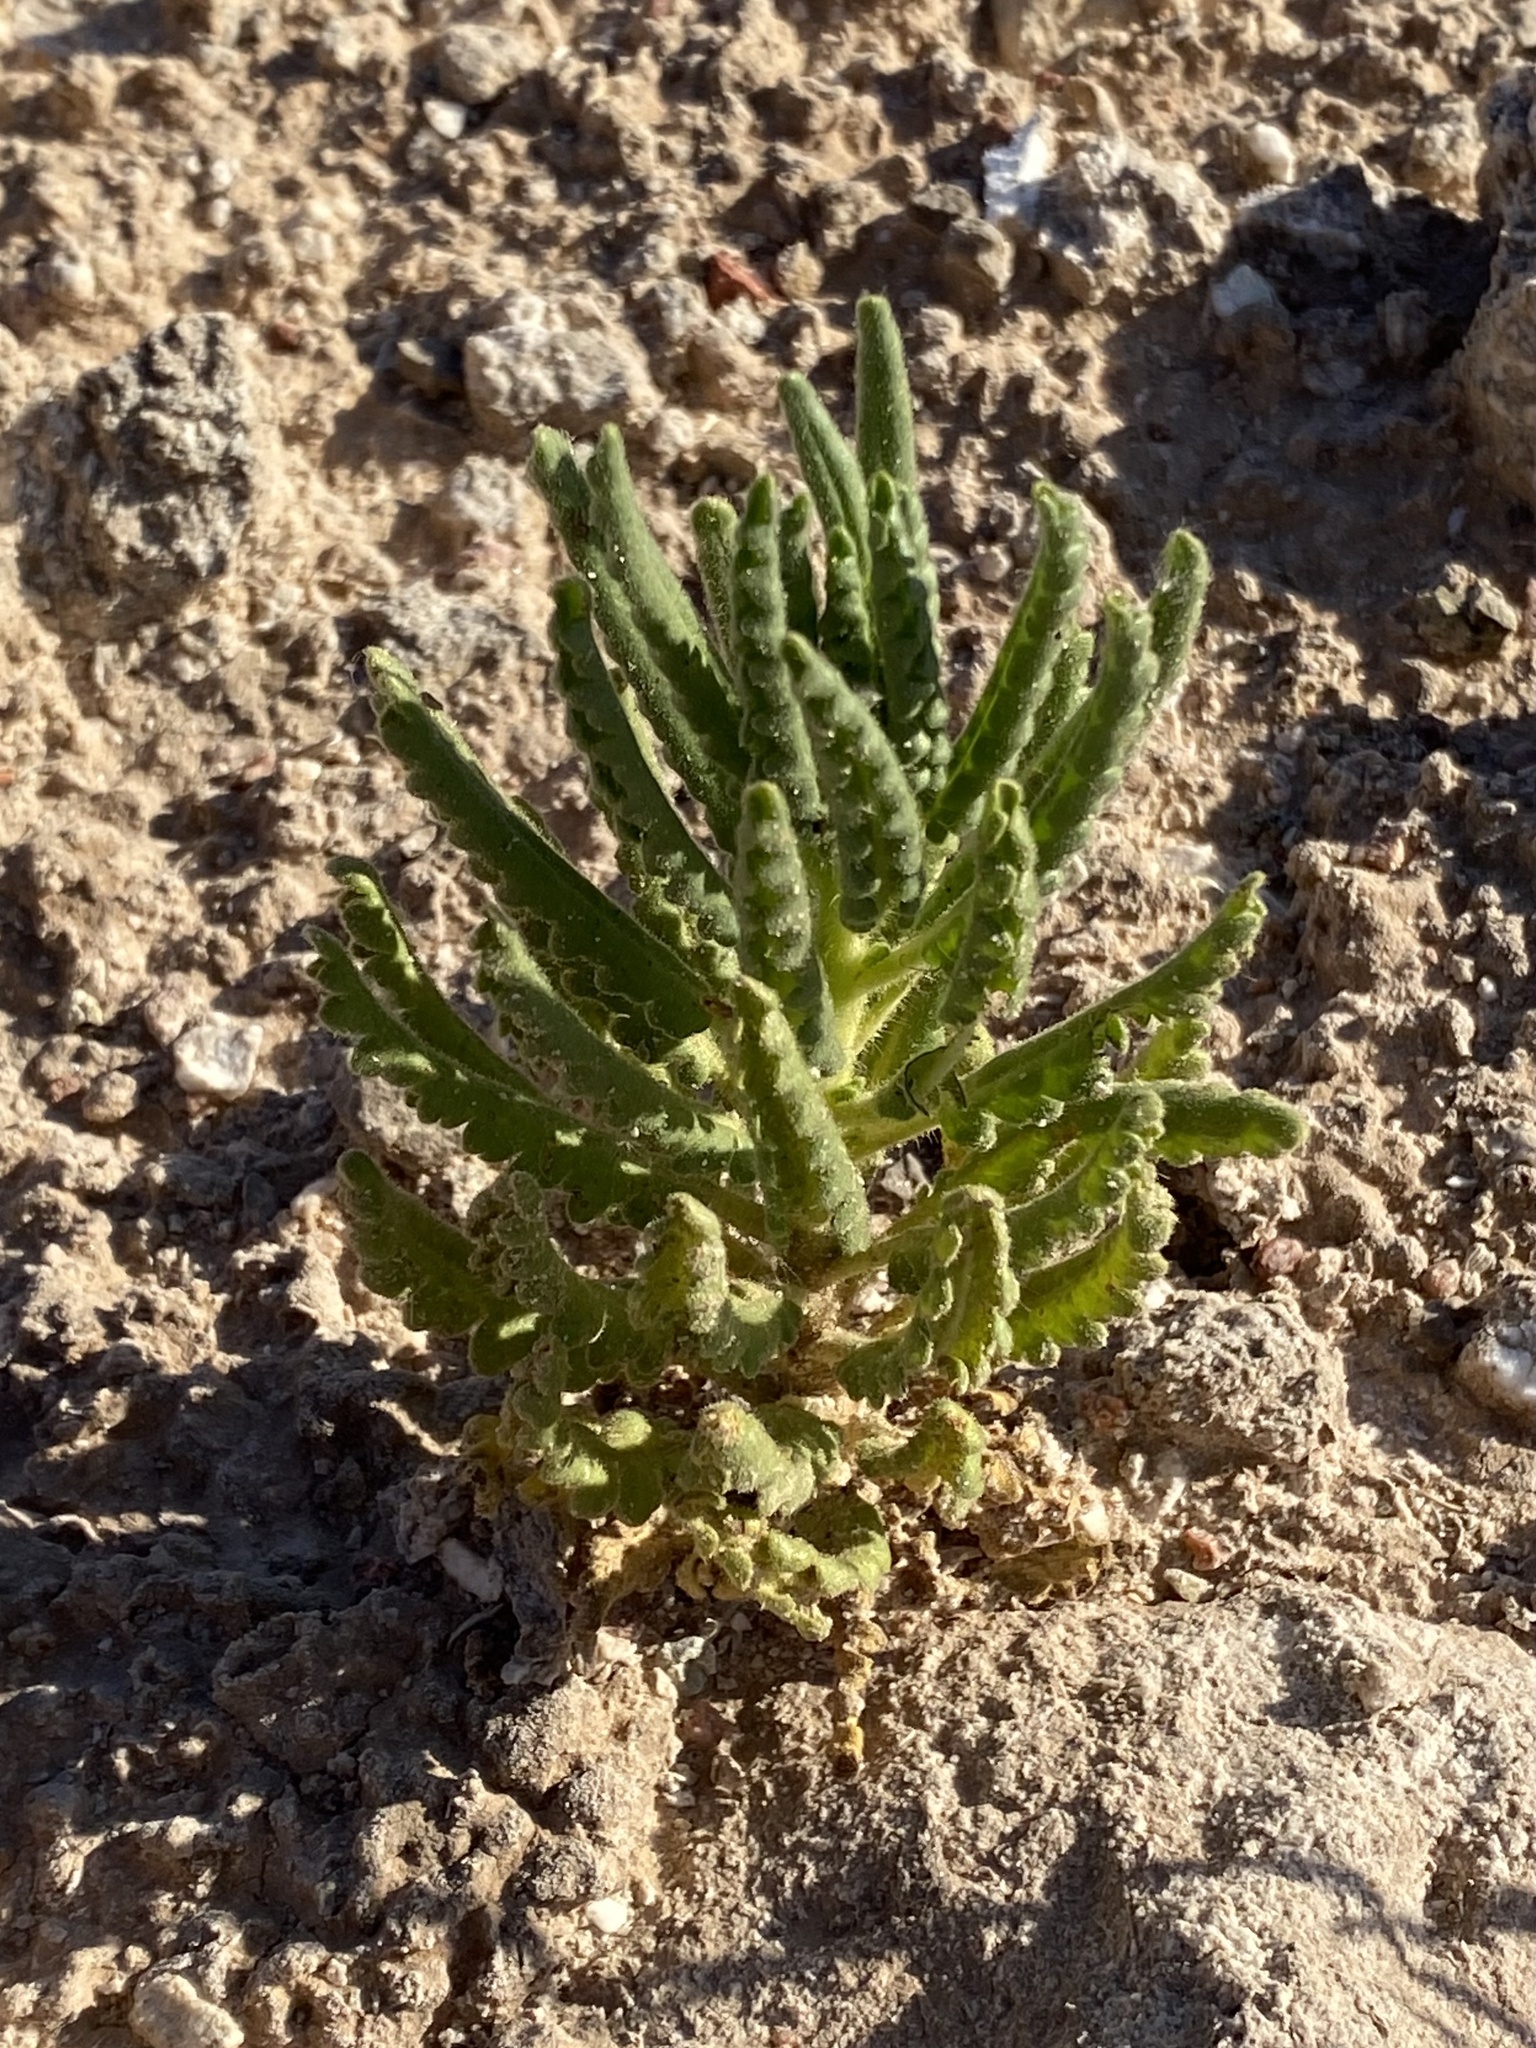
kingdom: Plantae
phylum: Tracheophyta
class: Magnoliopsida
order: Boraginales
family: Hydrophyllaceae
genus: Phacelia
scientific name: Phacelia sivinskii
